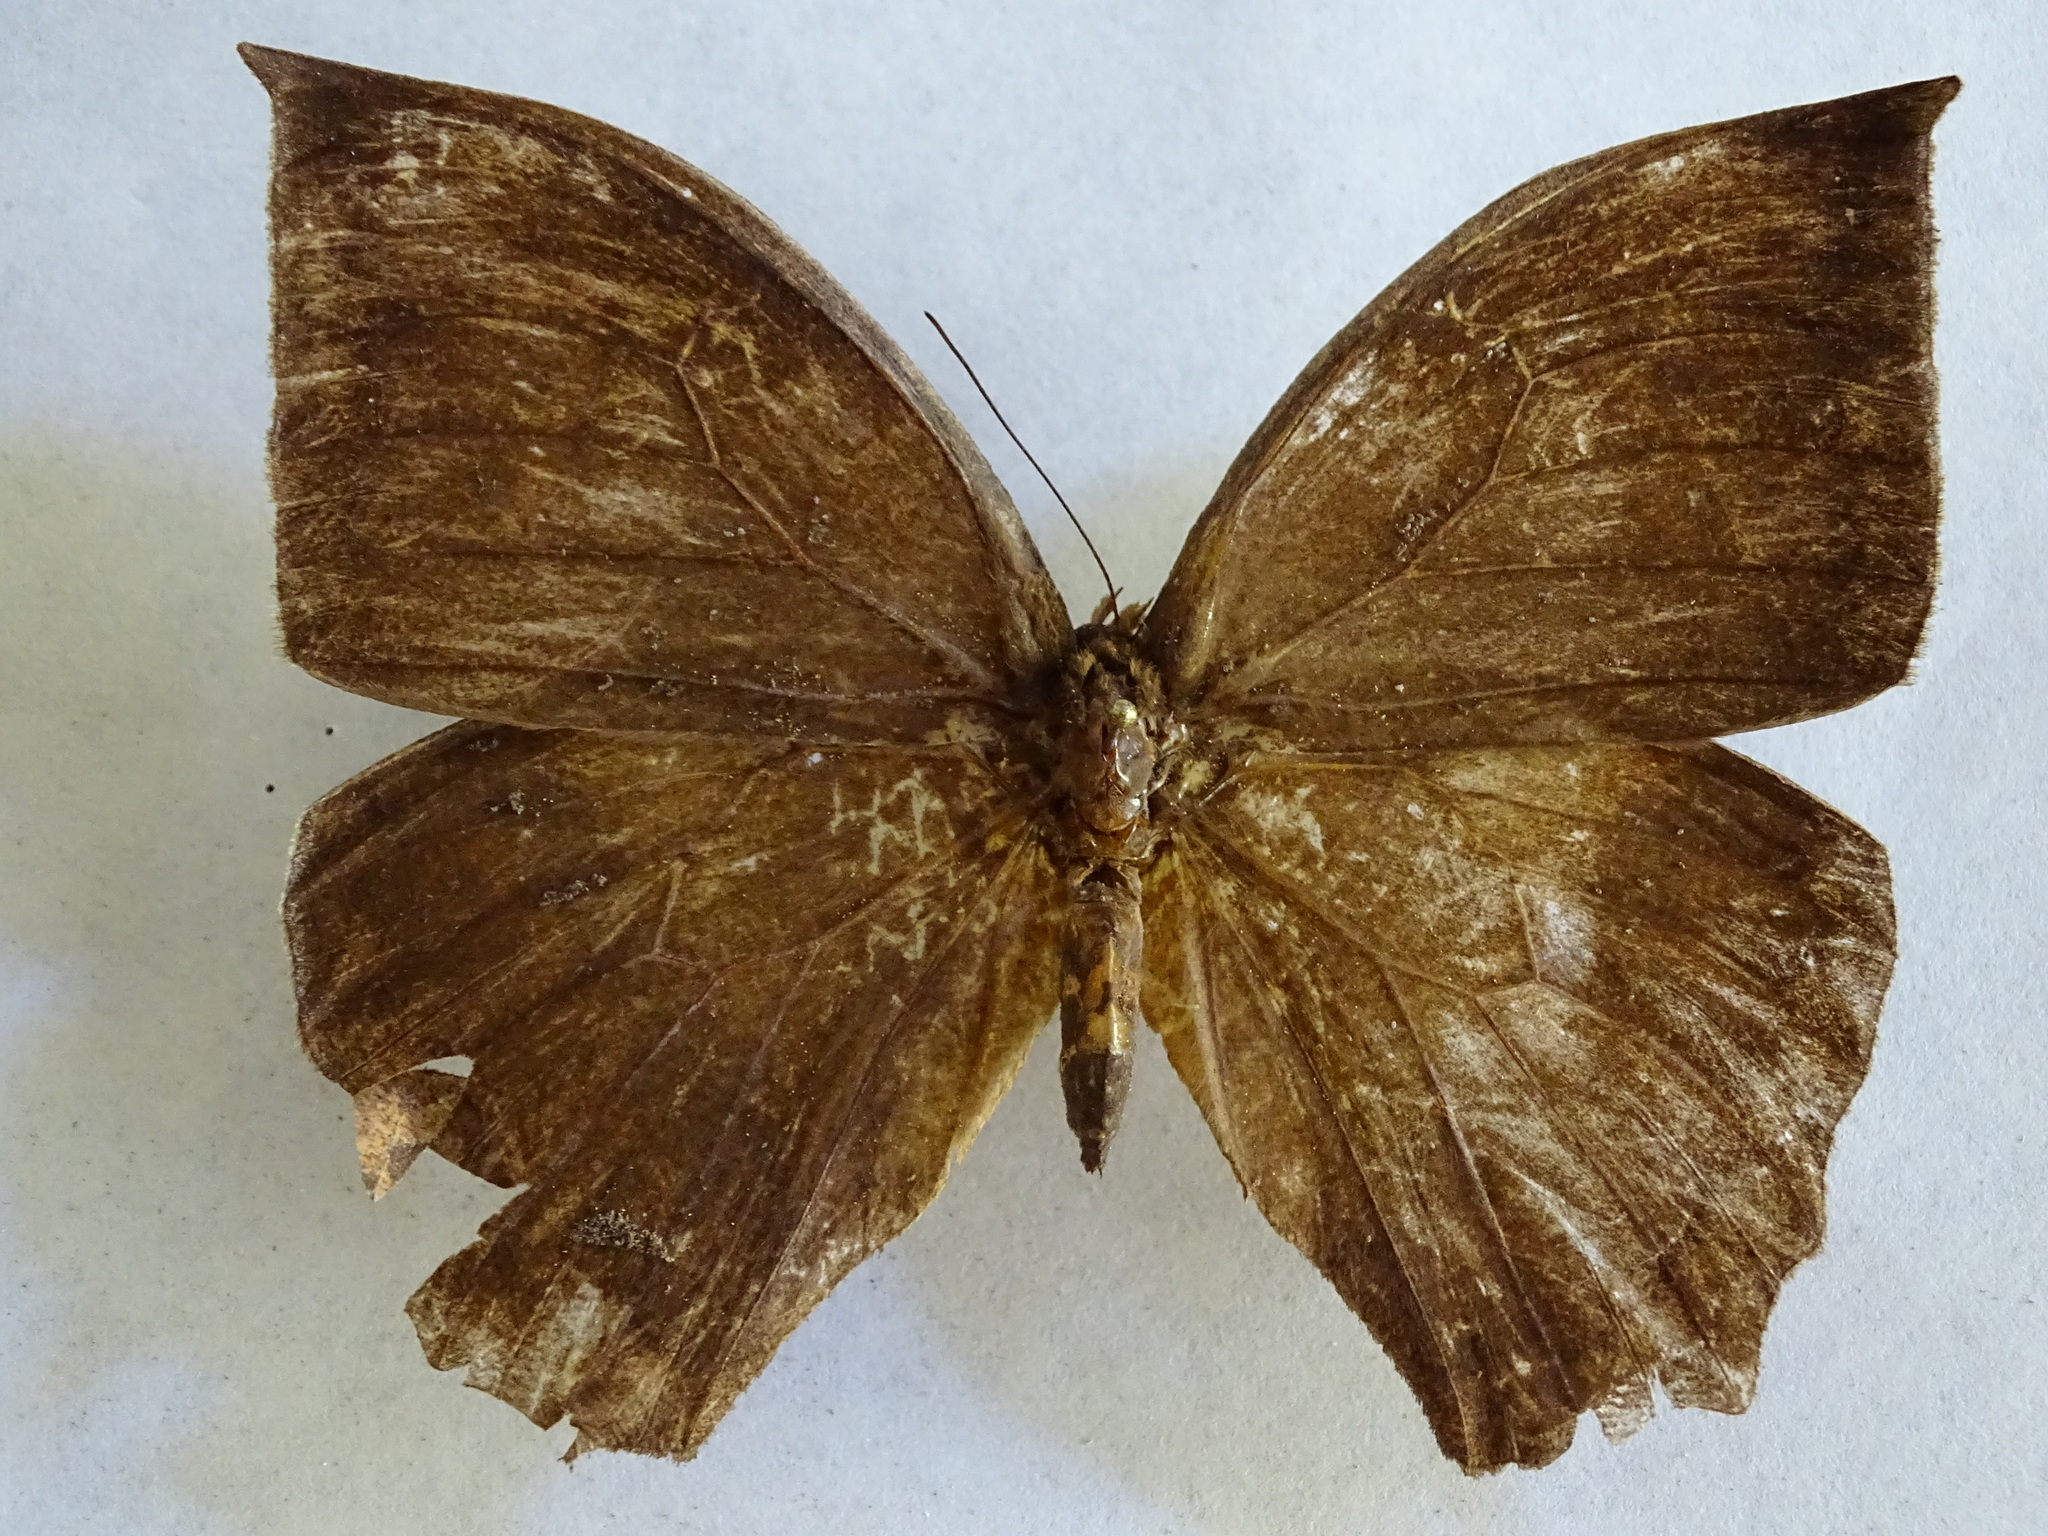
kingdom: Animalia
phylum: Arthropoda
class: Insecta
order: Lepidoptera
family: Nymphalidae
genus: Taygetis
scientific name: Taygetis mermeria
